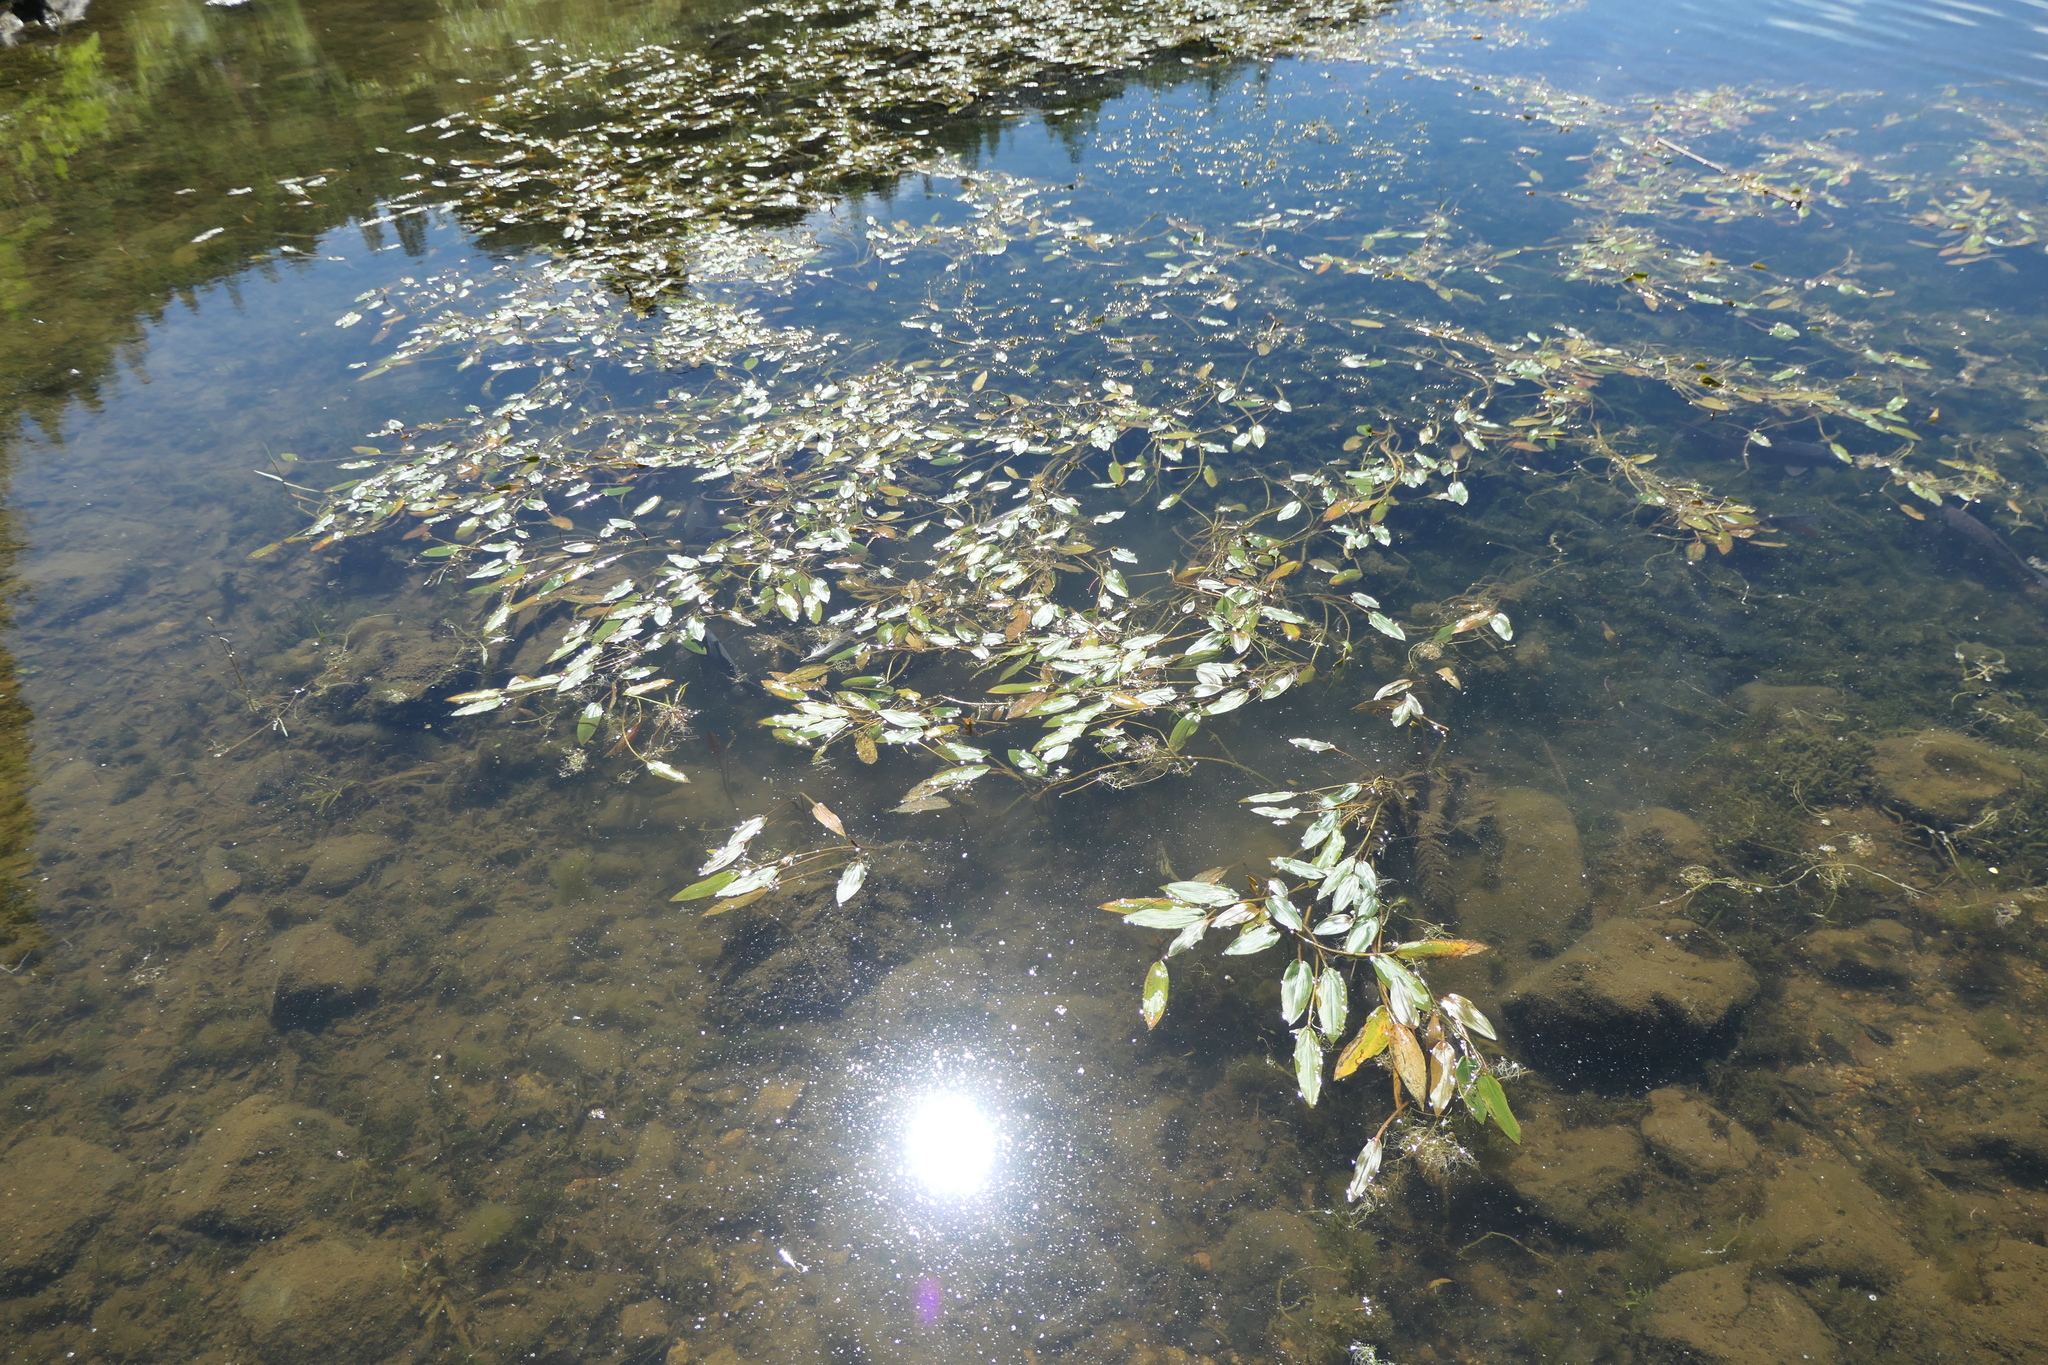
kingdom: Plantae
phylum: Tracheophyta
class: Liliopsida
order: Alismatales
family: Potamogetonaceae
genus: Potamogeton
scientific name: Potamogeton nodosus
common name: Loddon pondweed
